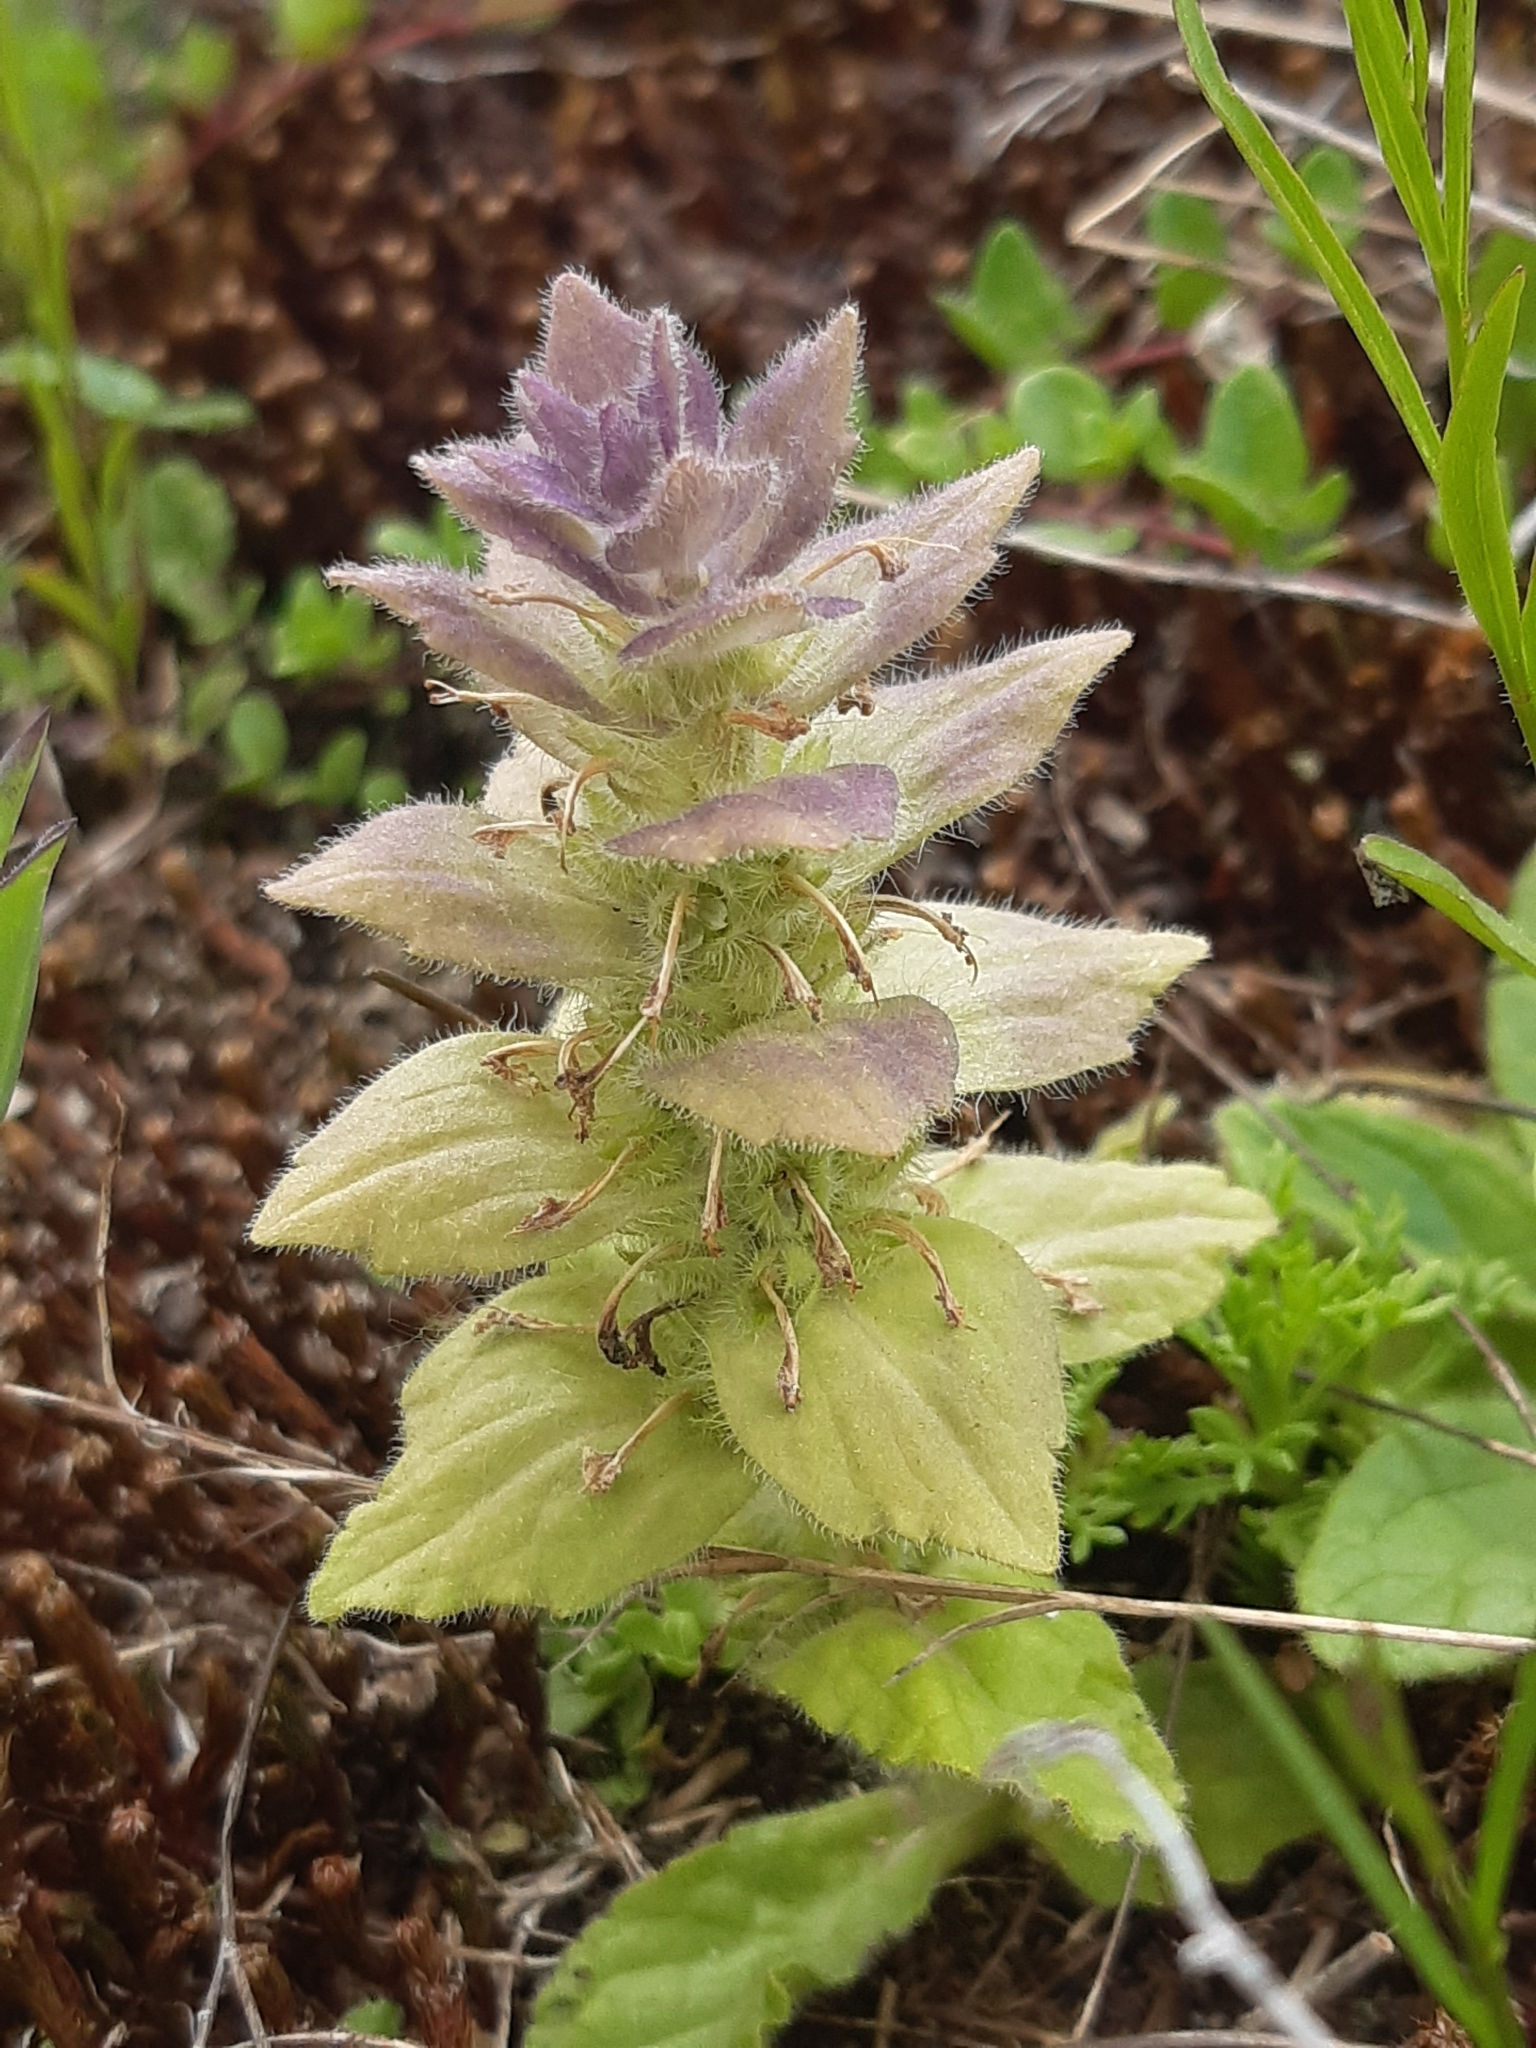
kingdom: Plantae
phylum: Tracheophyta
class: Magnoliopsida
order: Lamiales
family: Lamiaceae
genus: Ajuga
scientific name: Ajuga pyramidalis
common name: Pyramid bugle
